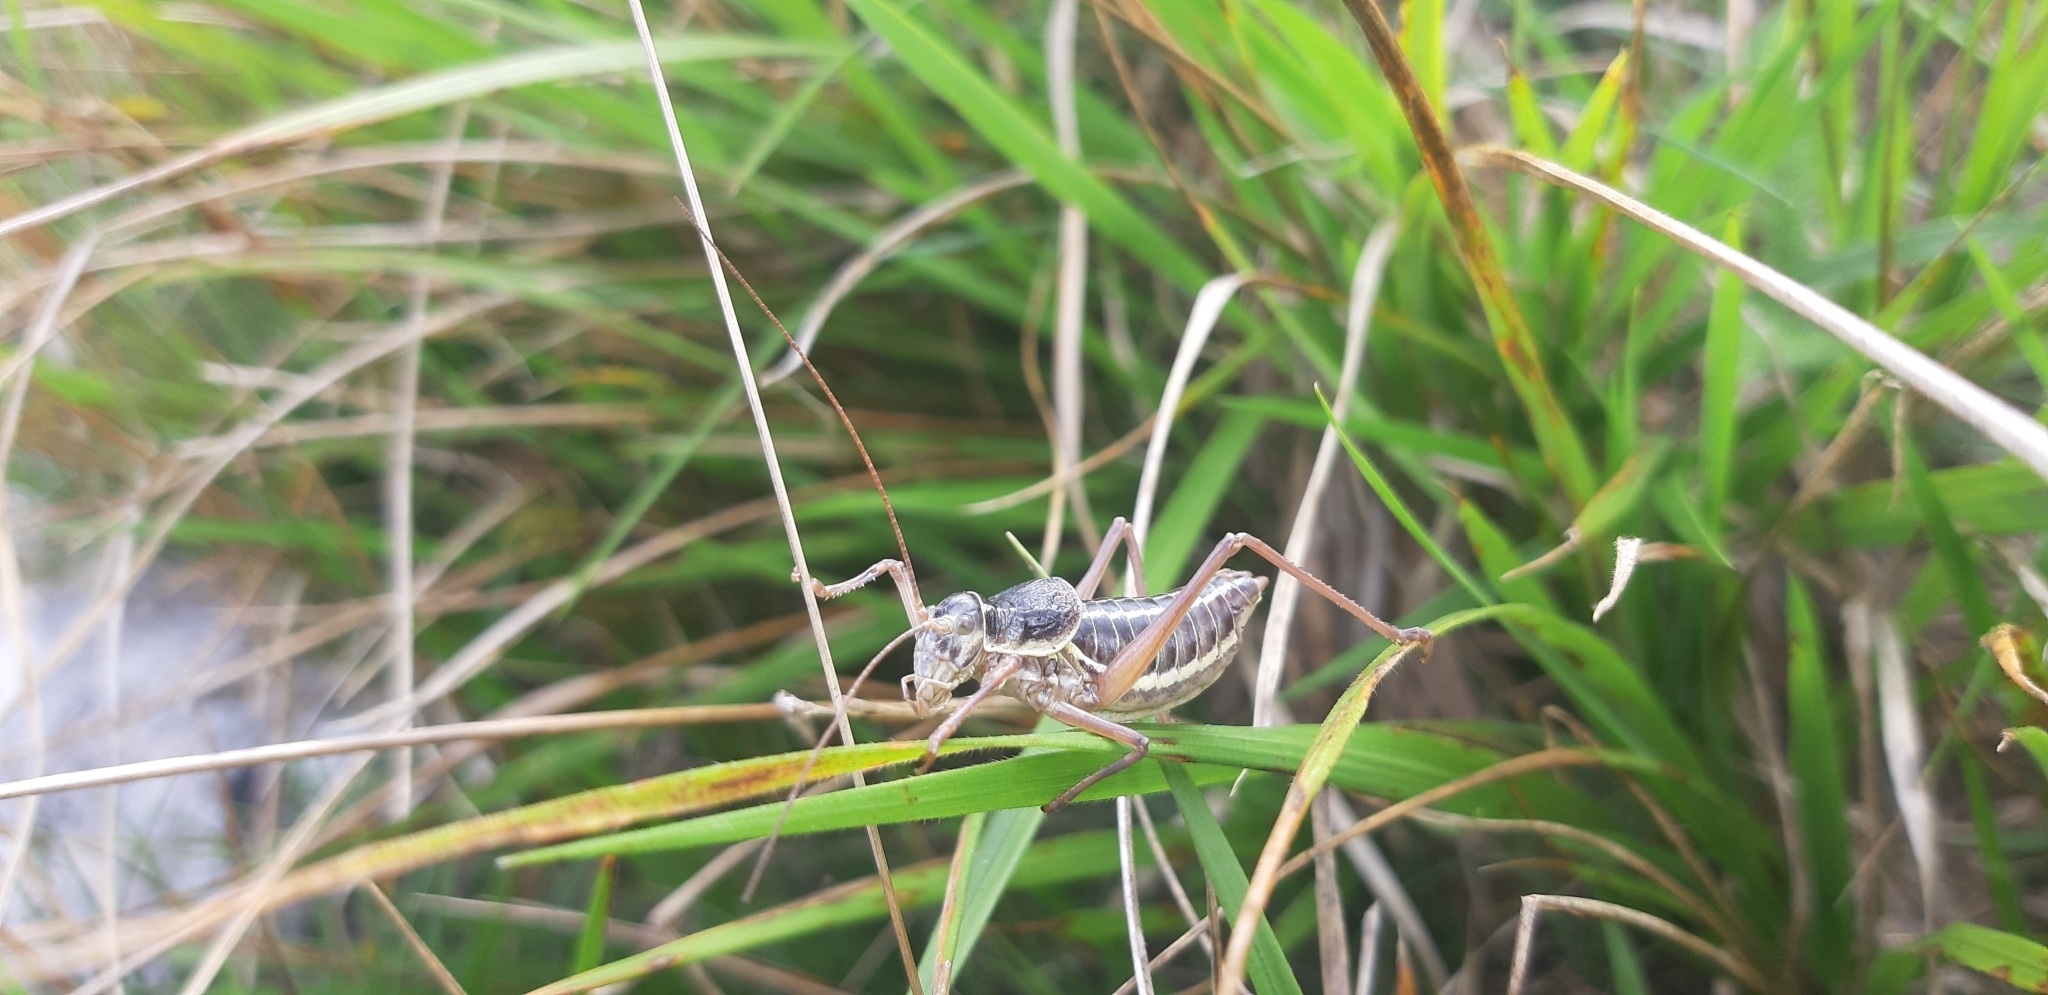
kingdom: Animalia
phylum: Arthropoda
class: Insecta
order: Orthoptera
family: Tettigoniidae
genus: Ephippiger
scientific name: Ephippiger ruffoi
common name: Pygmy saddle bush-cricket
